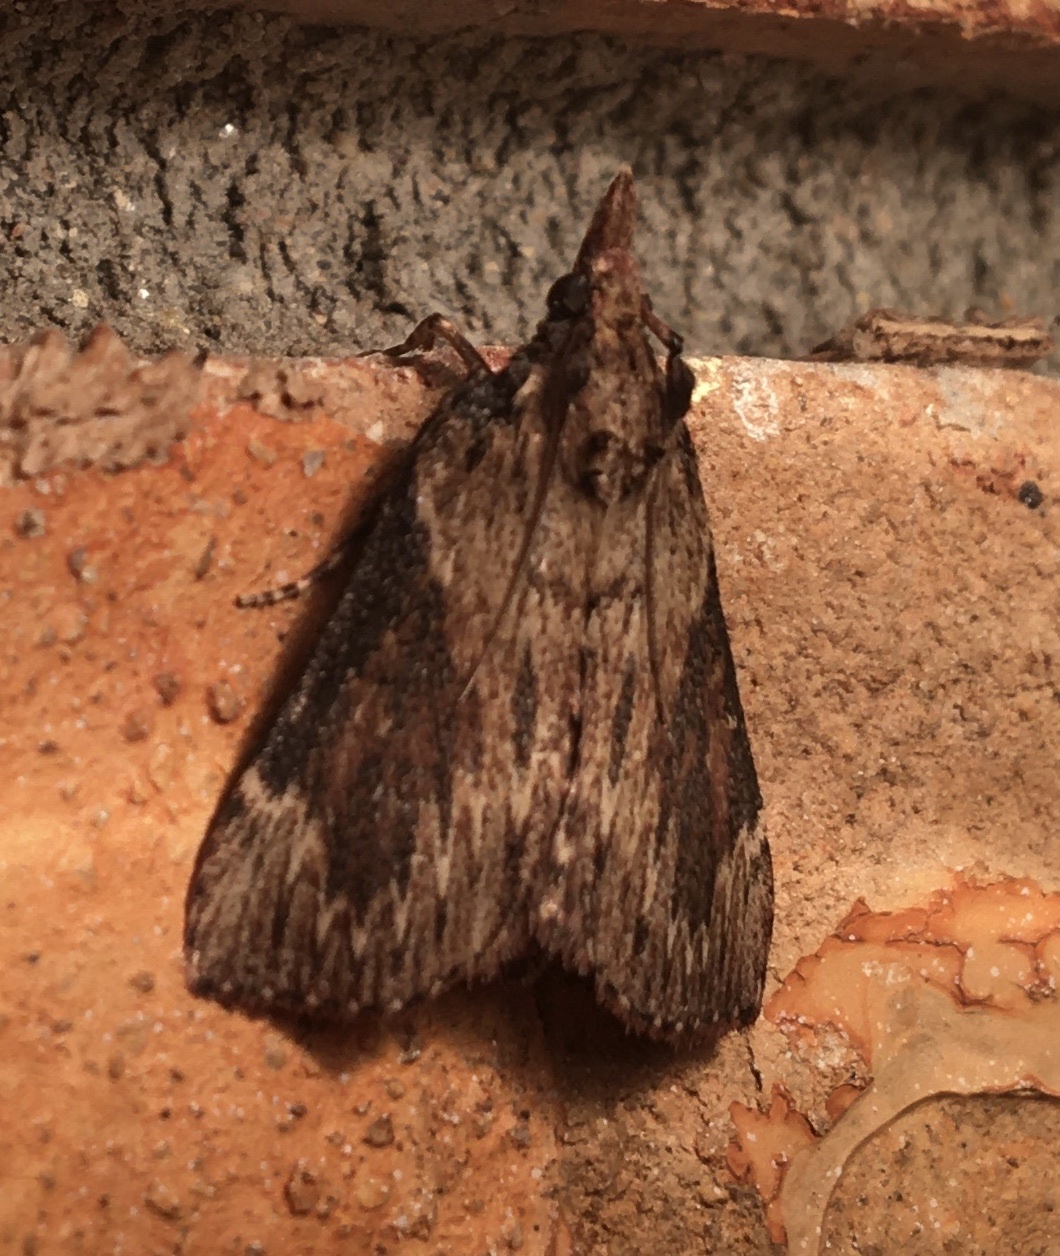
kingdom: Animalia
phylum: Arthropoda
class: Insecta
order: Lepidoptera
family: Pyralidae
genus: Omphalocera
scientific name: Omphalocera cariosa
